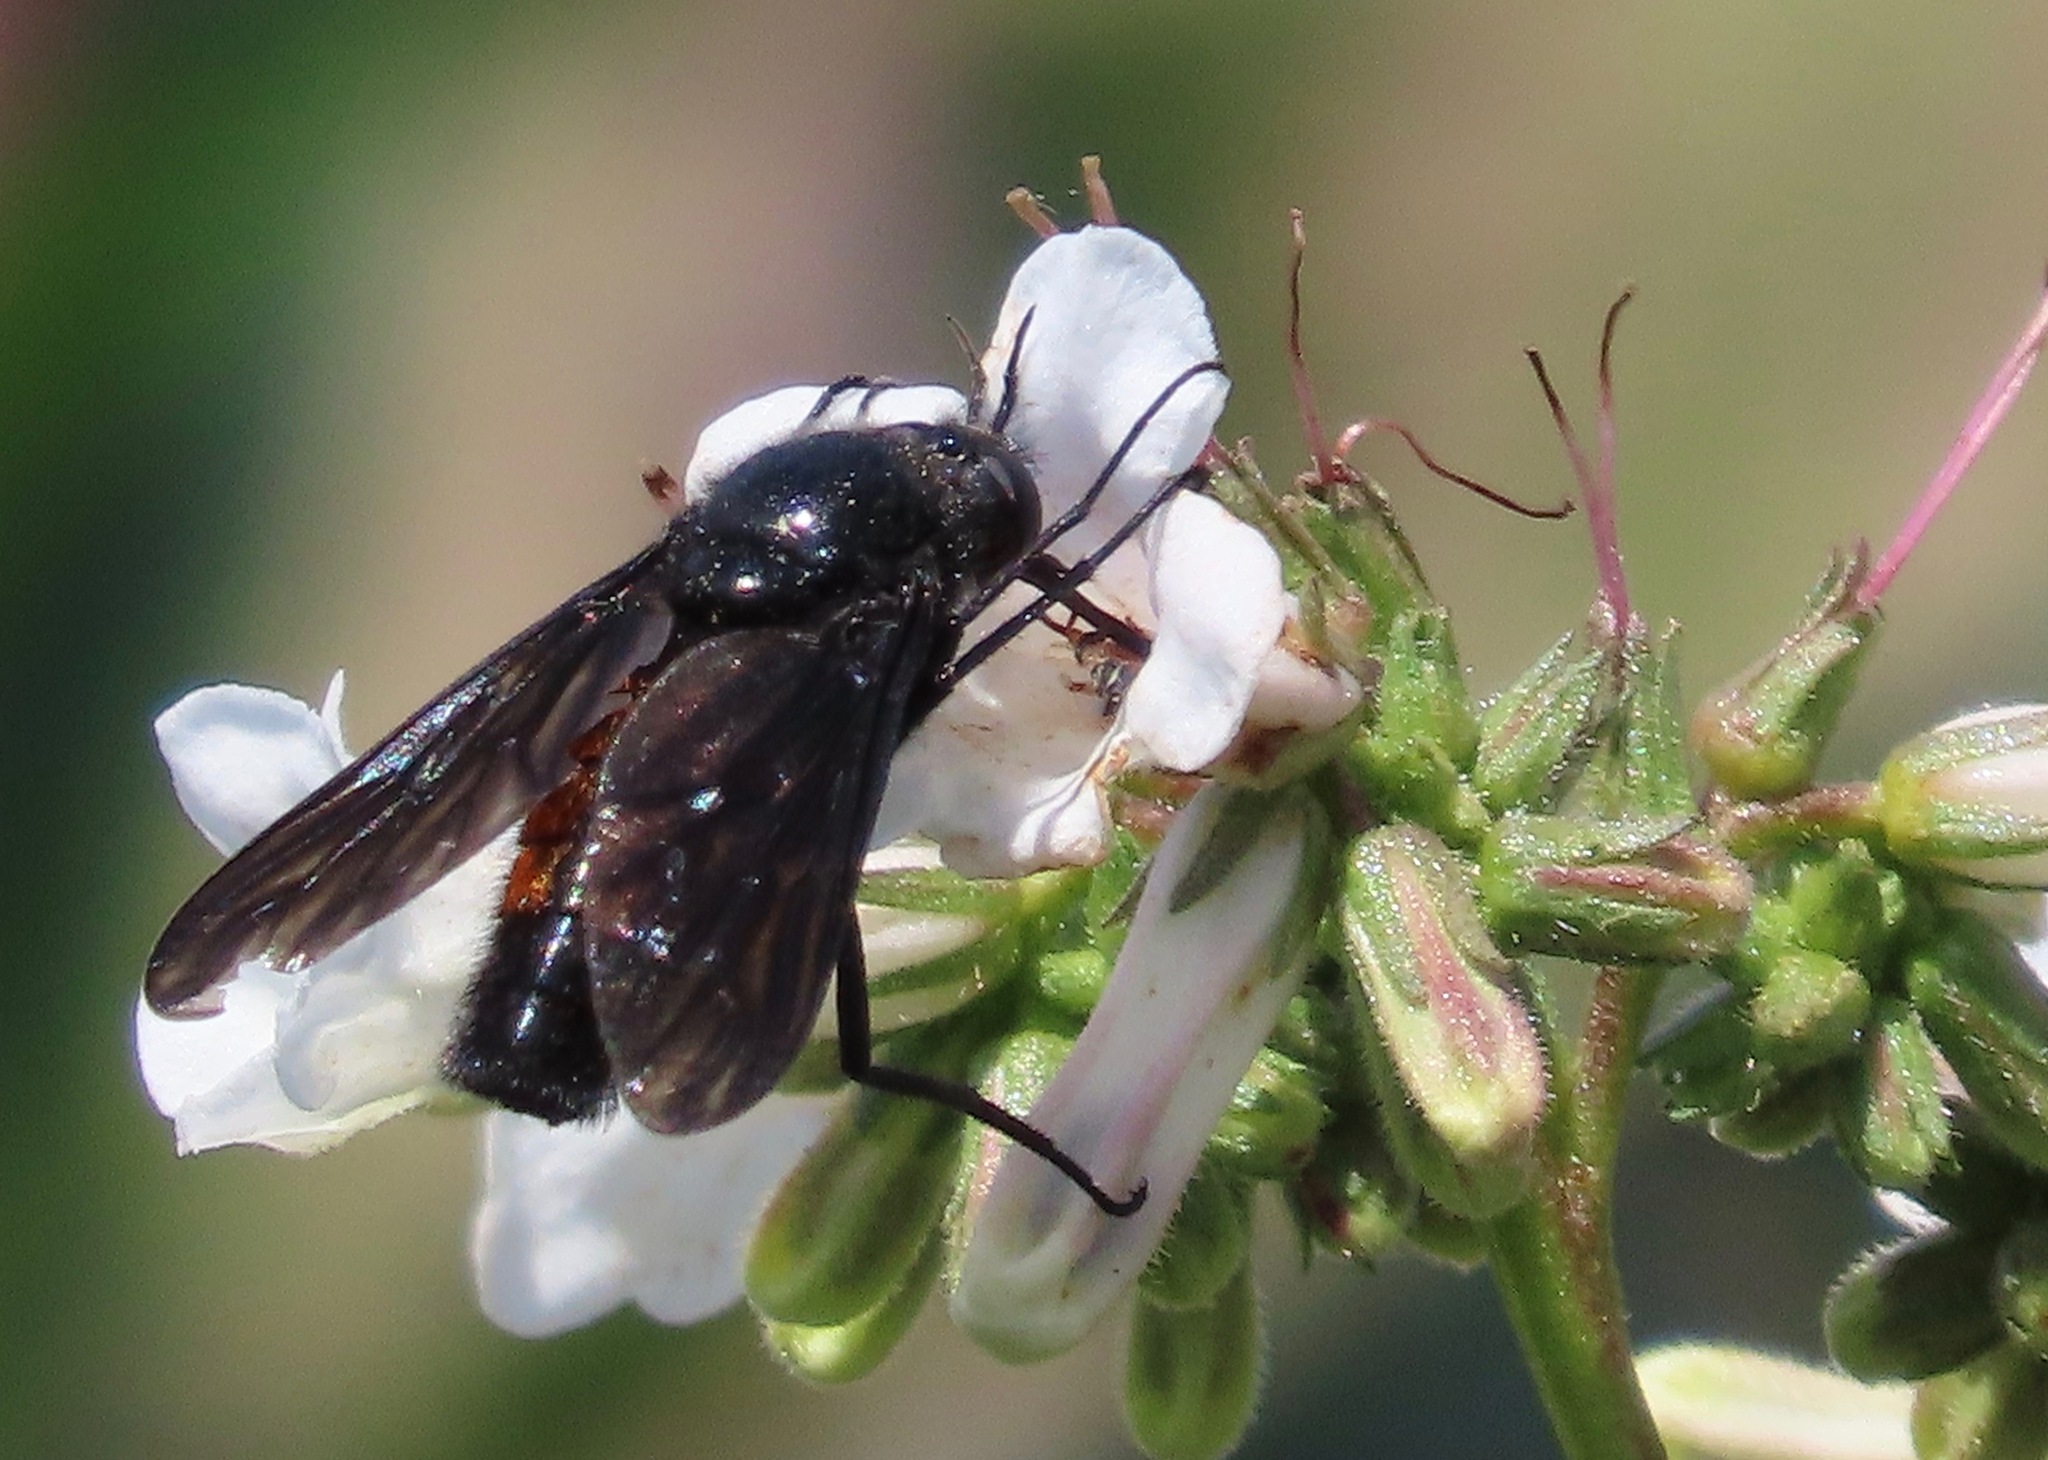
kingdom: Animalia
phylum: Arthropoda
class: Insecta
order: Diptera
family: Bombyliidae
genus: Thevenetimyia
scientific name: Thevenetimyia notata
